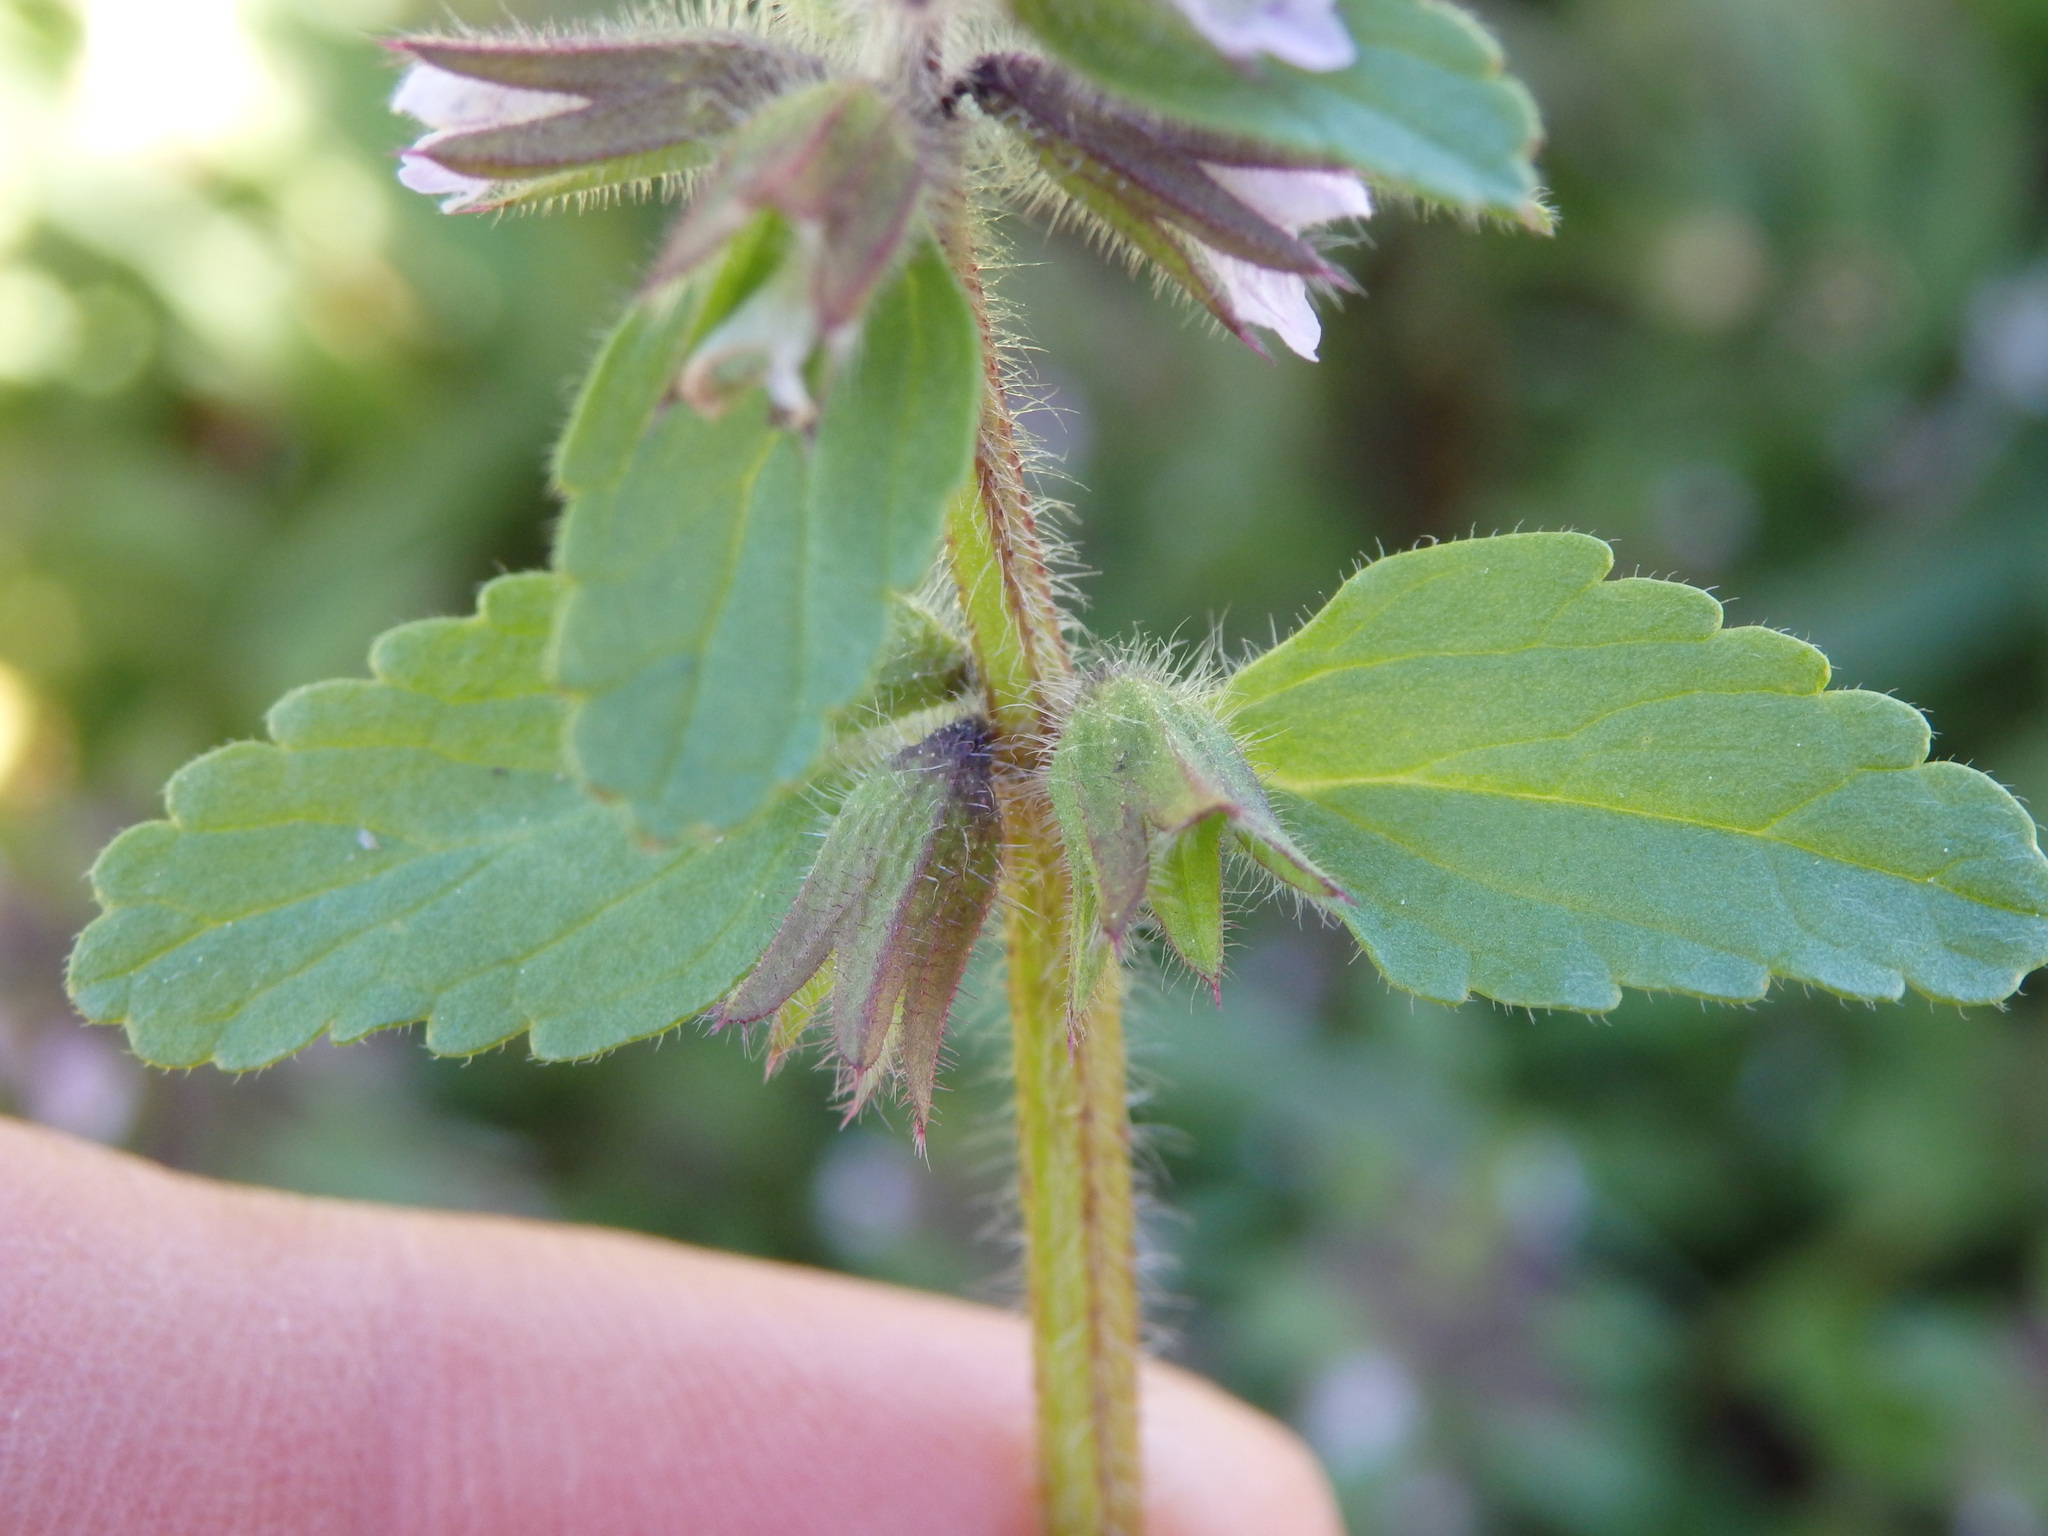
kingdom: Plantae
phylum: Tracheophyta
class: Magnoliopsida
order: Lamiales
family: Lamiaceae
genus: Stachys
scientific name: Stachys arvensis
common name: Field woundwort
